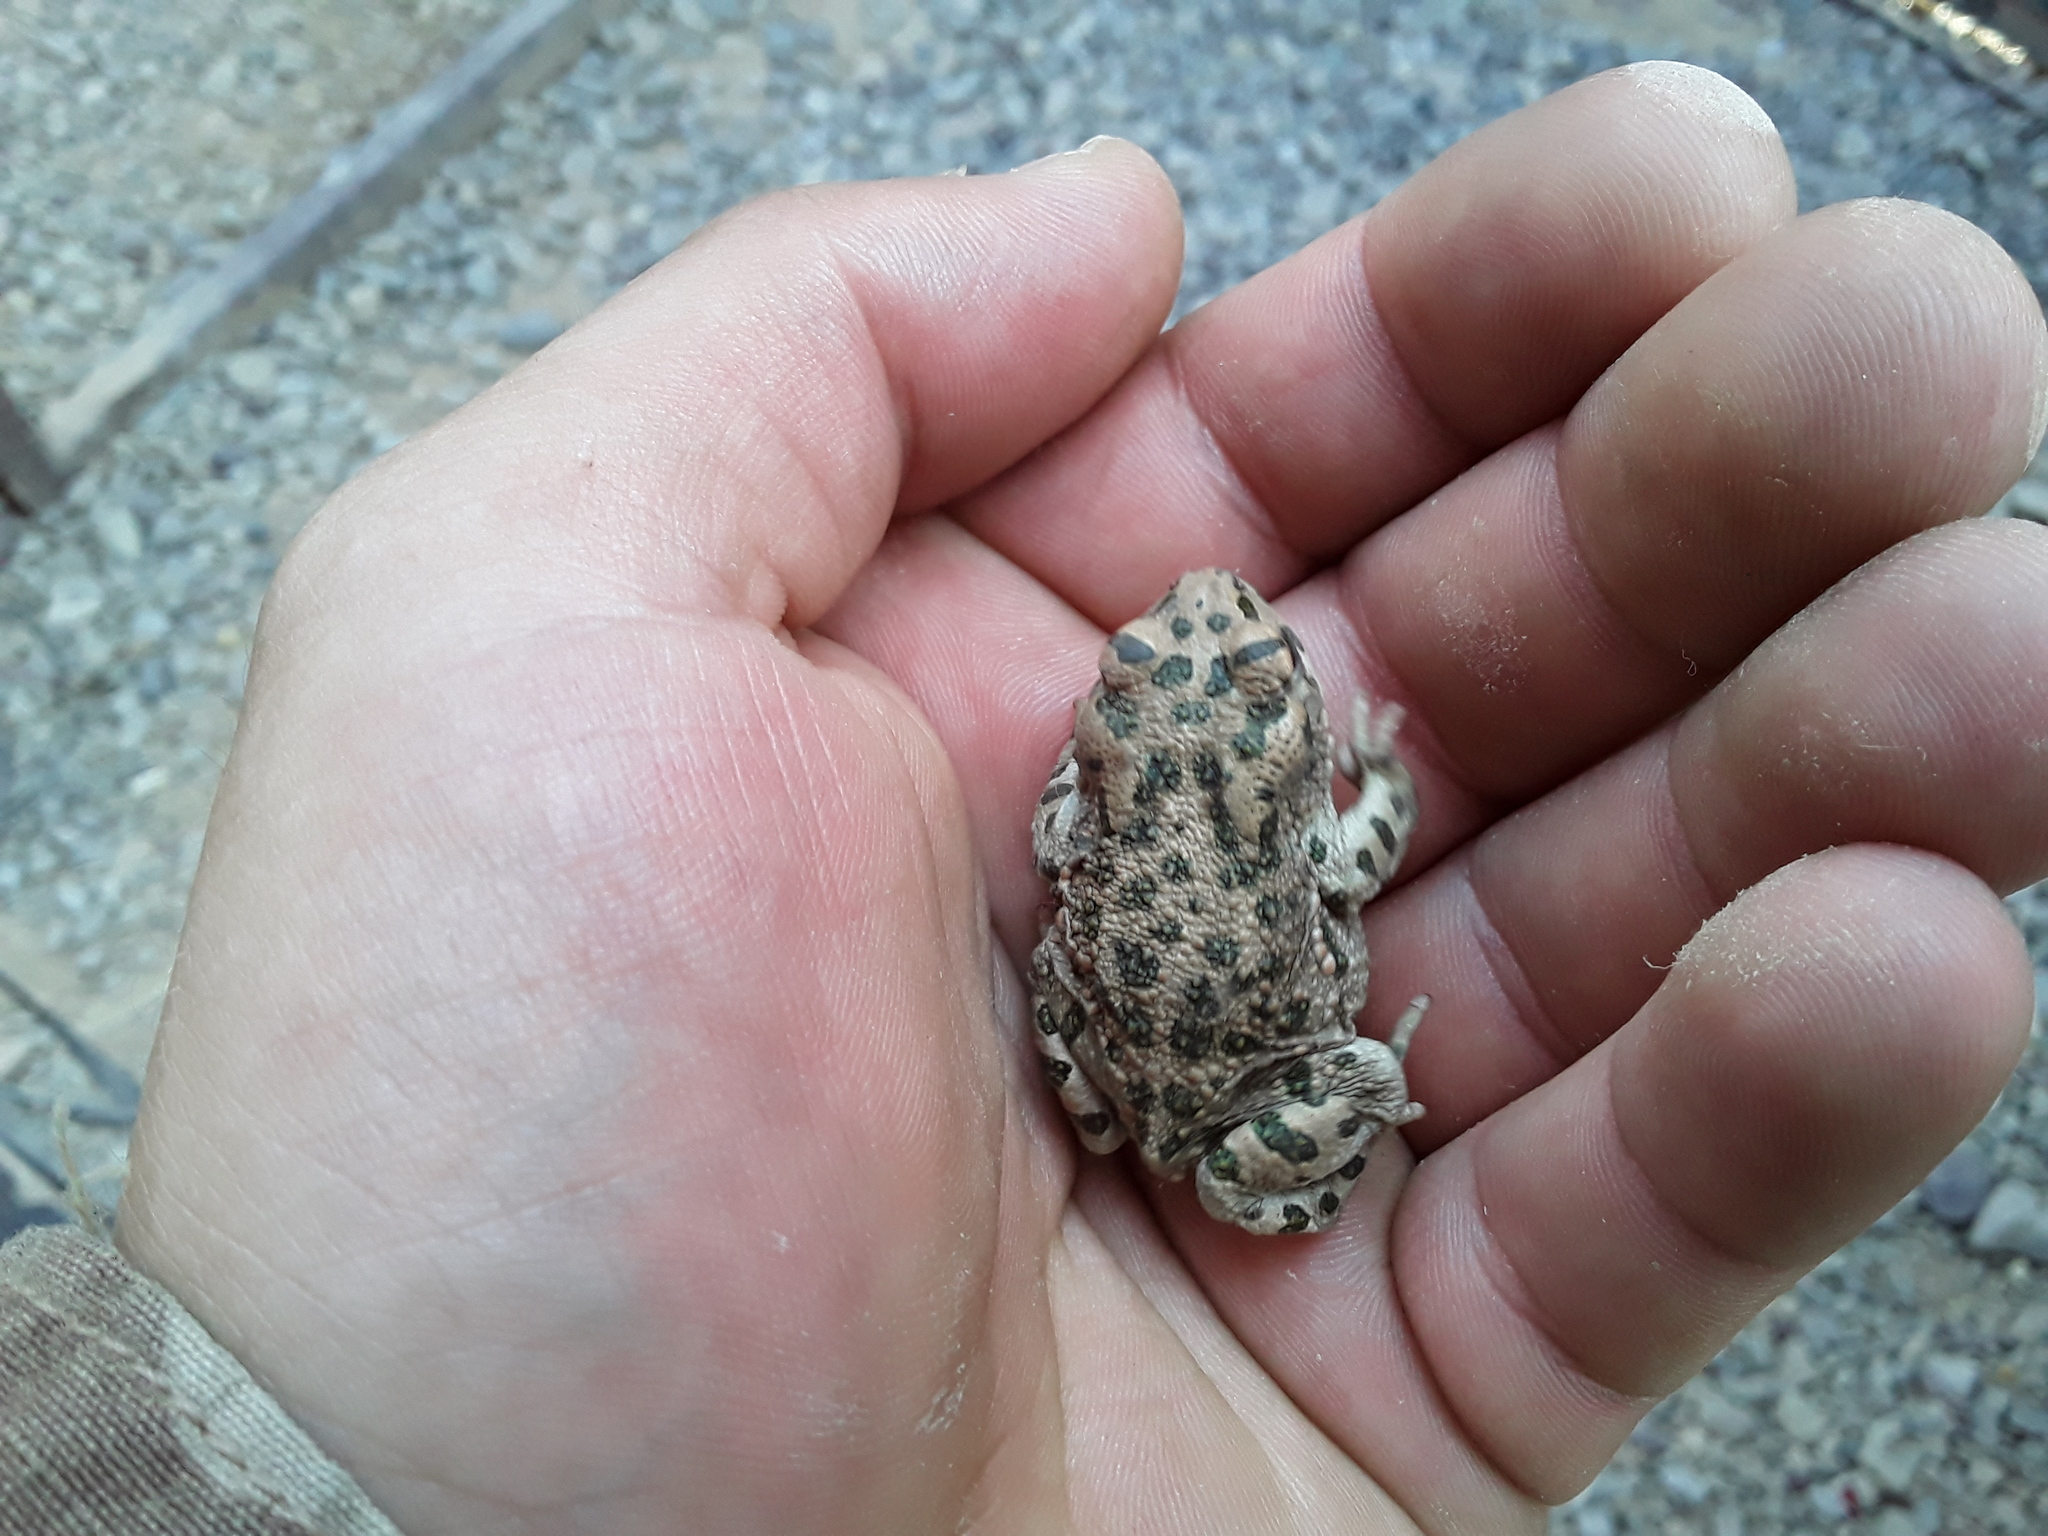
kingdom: Animalia
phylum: Chordata
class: Amphibia
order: Anura
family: Bufonidae
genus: Bufotes
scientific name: Bufotes viridis
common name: European green toad
